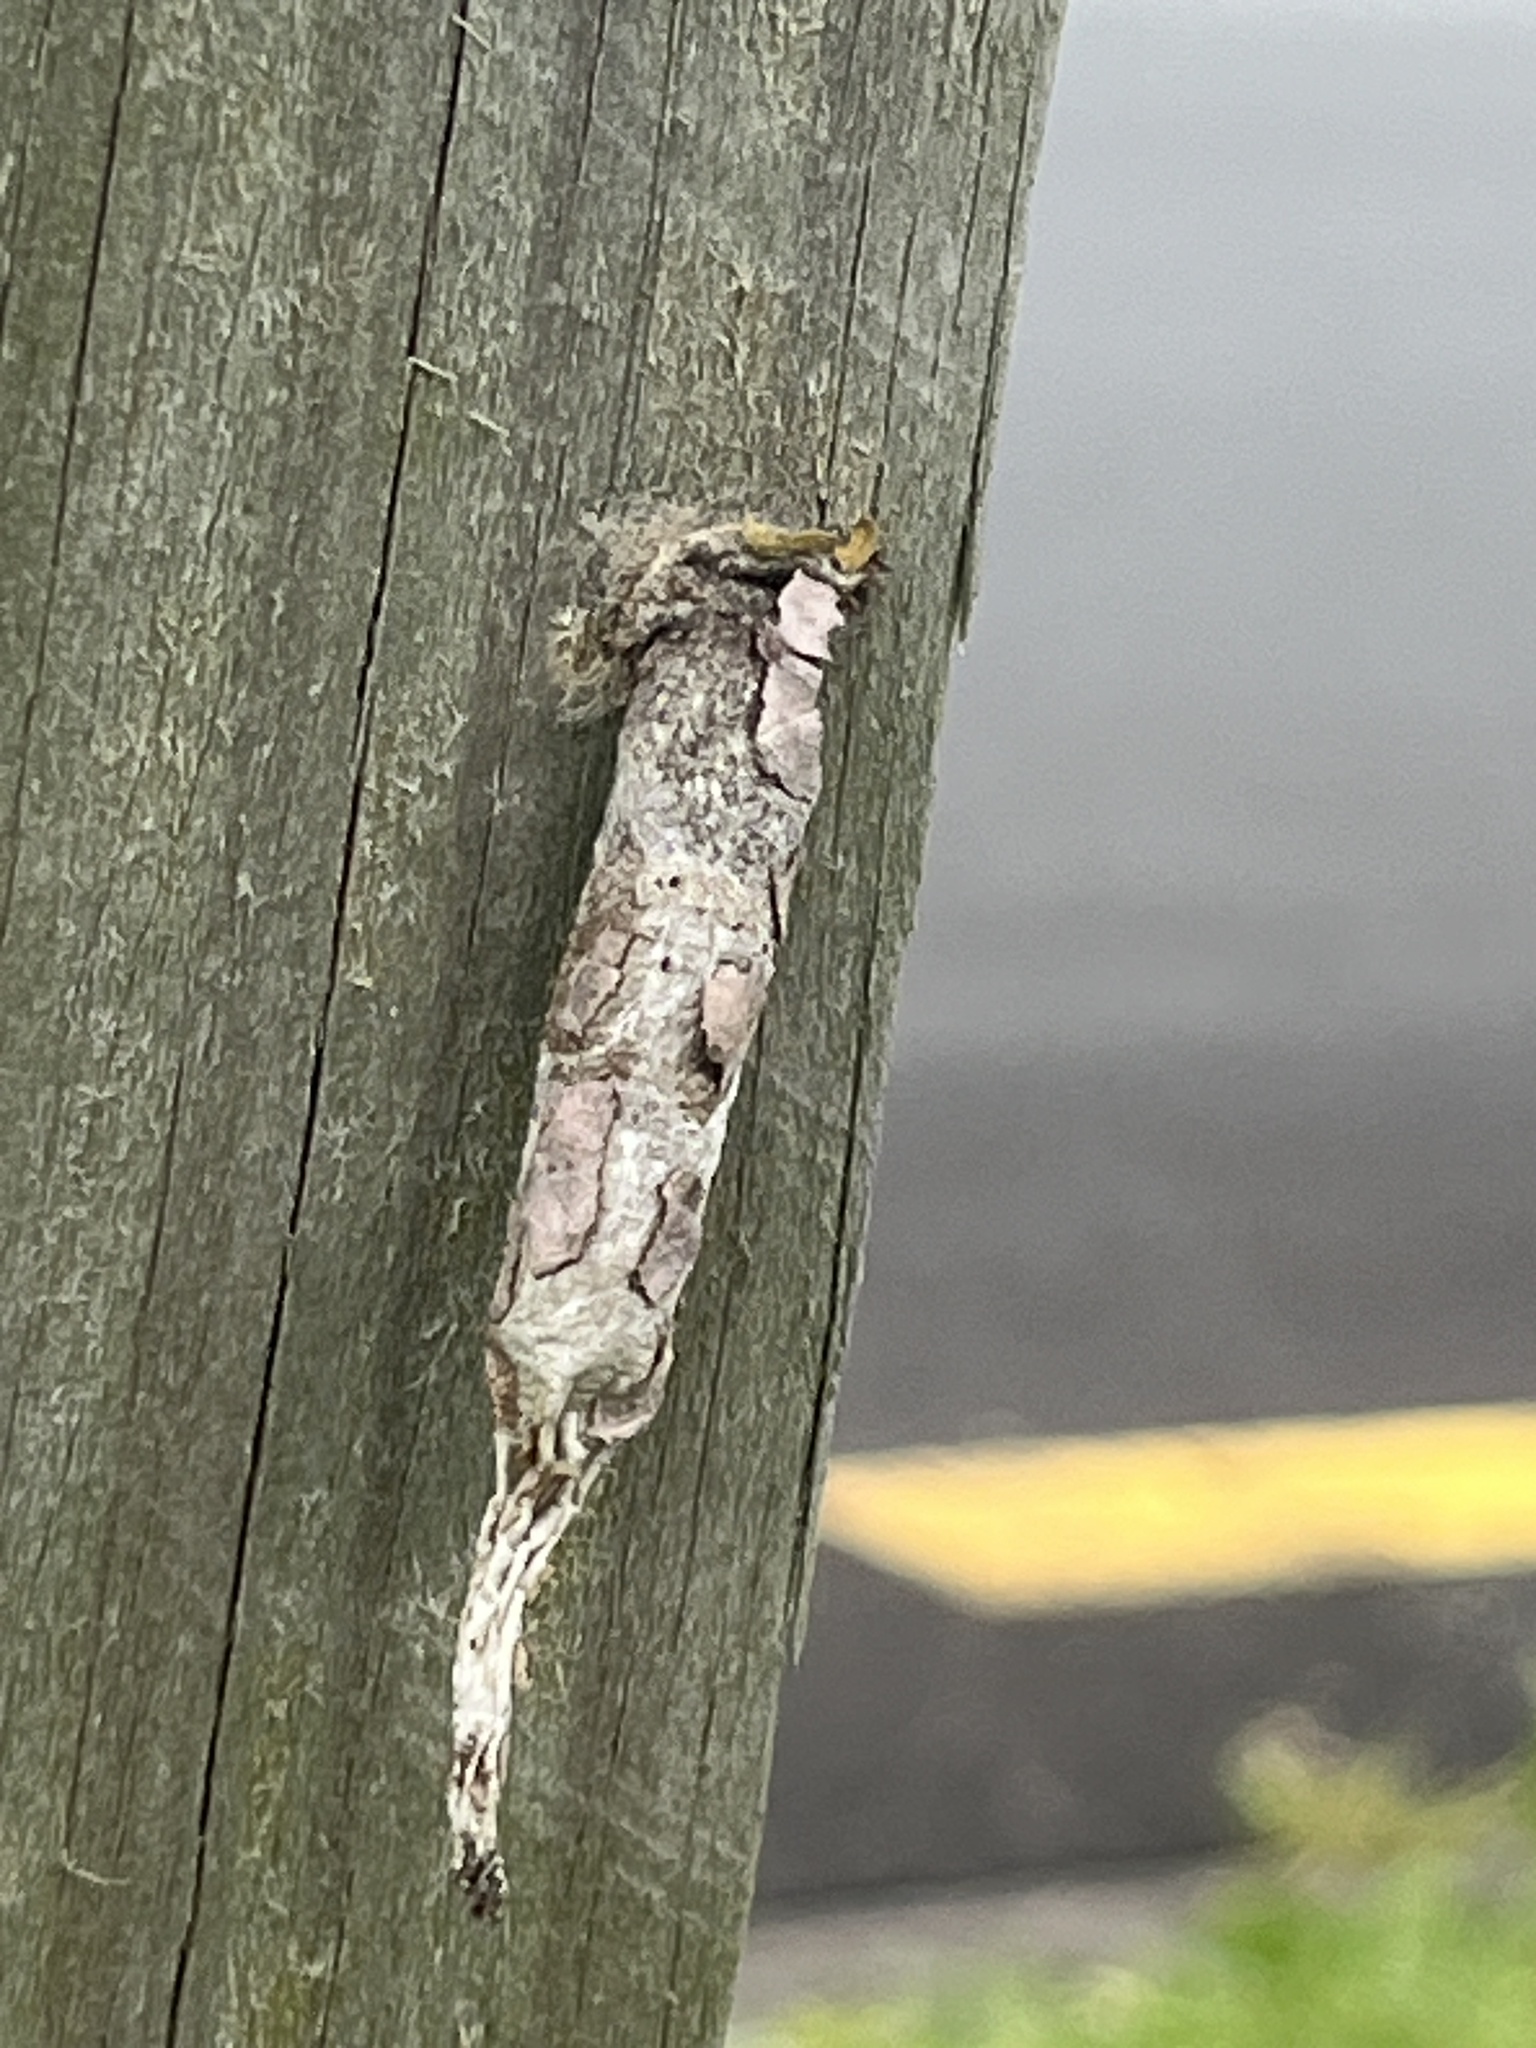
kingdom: Animalia
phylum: Arthropoda
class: Insecta
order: Lepidoptera
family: Psychidae
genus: Liothula
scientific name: Liothula omnivora
